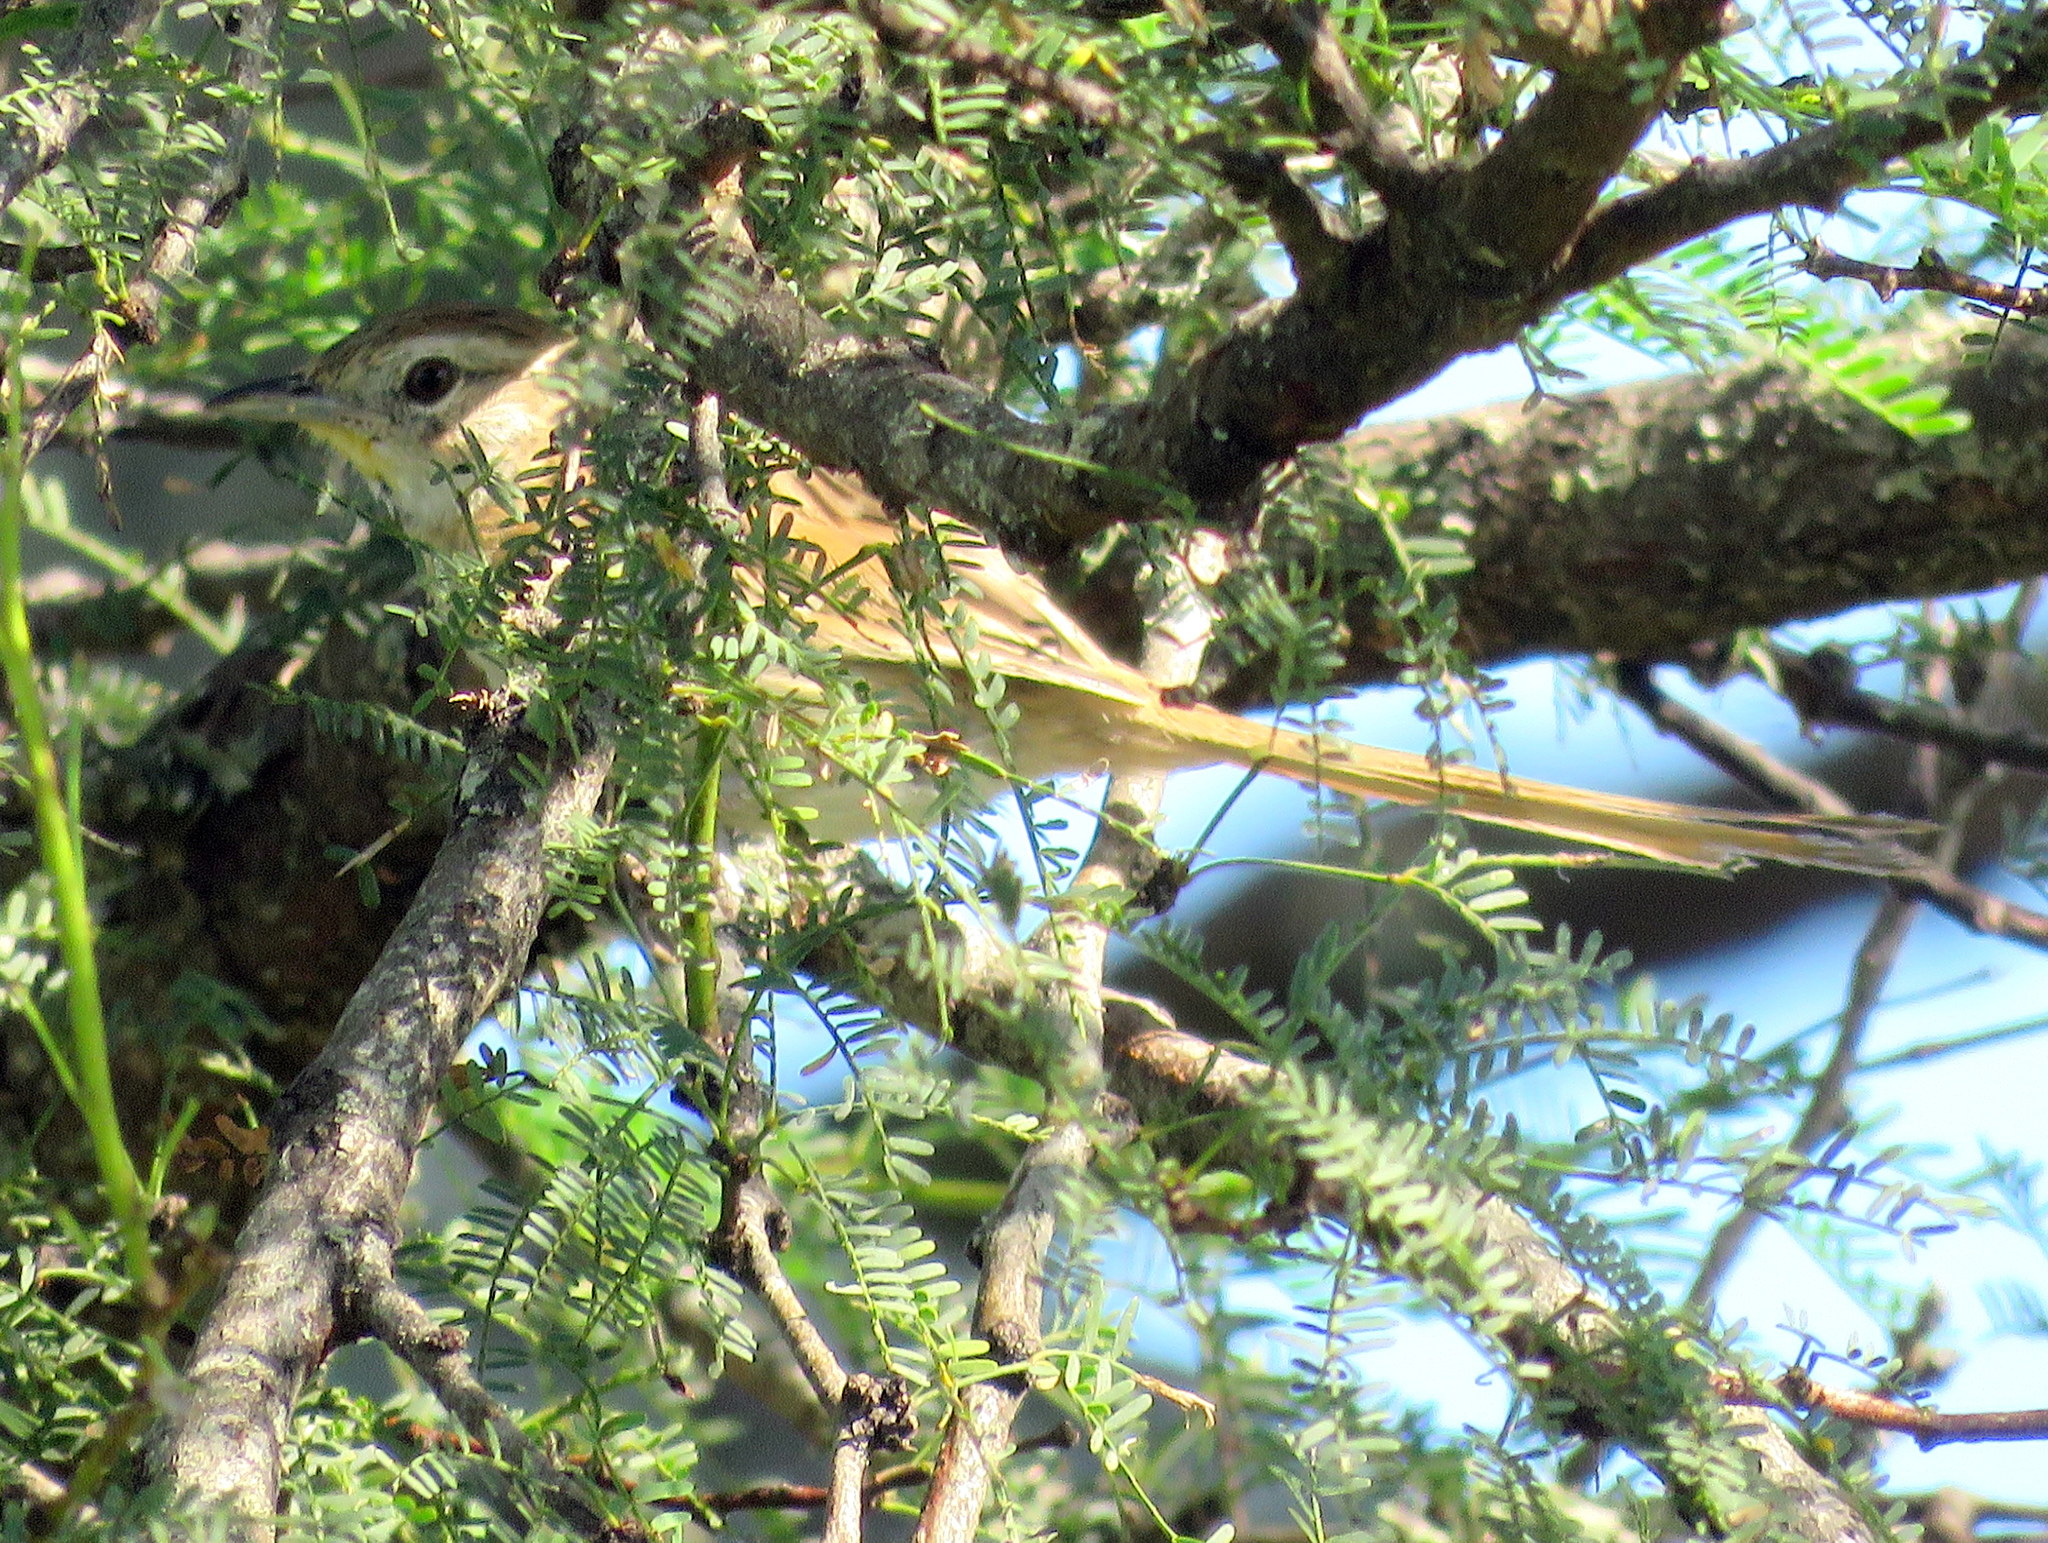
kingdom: Animalia
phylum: Chordata
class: Aves
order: Passeriformes
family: Furnariidae
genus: Schoeniophylax
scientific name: Schoeniophylax phryganophilus
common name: Chotoy spinetail
